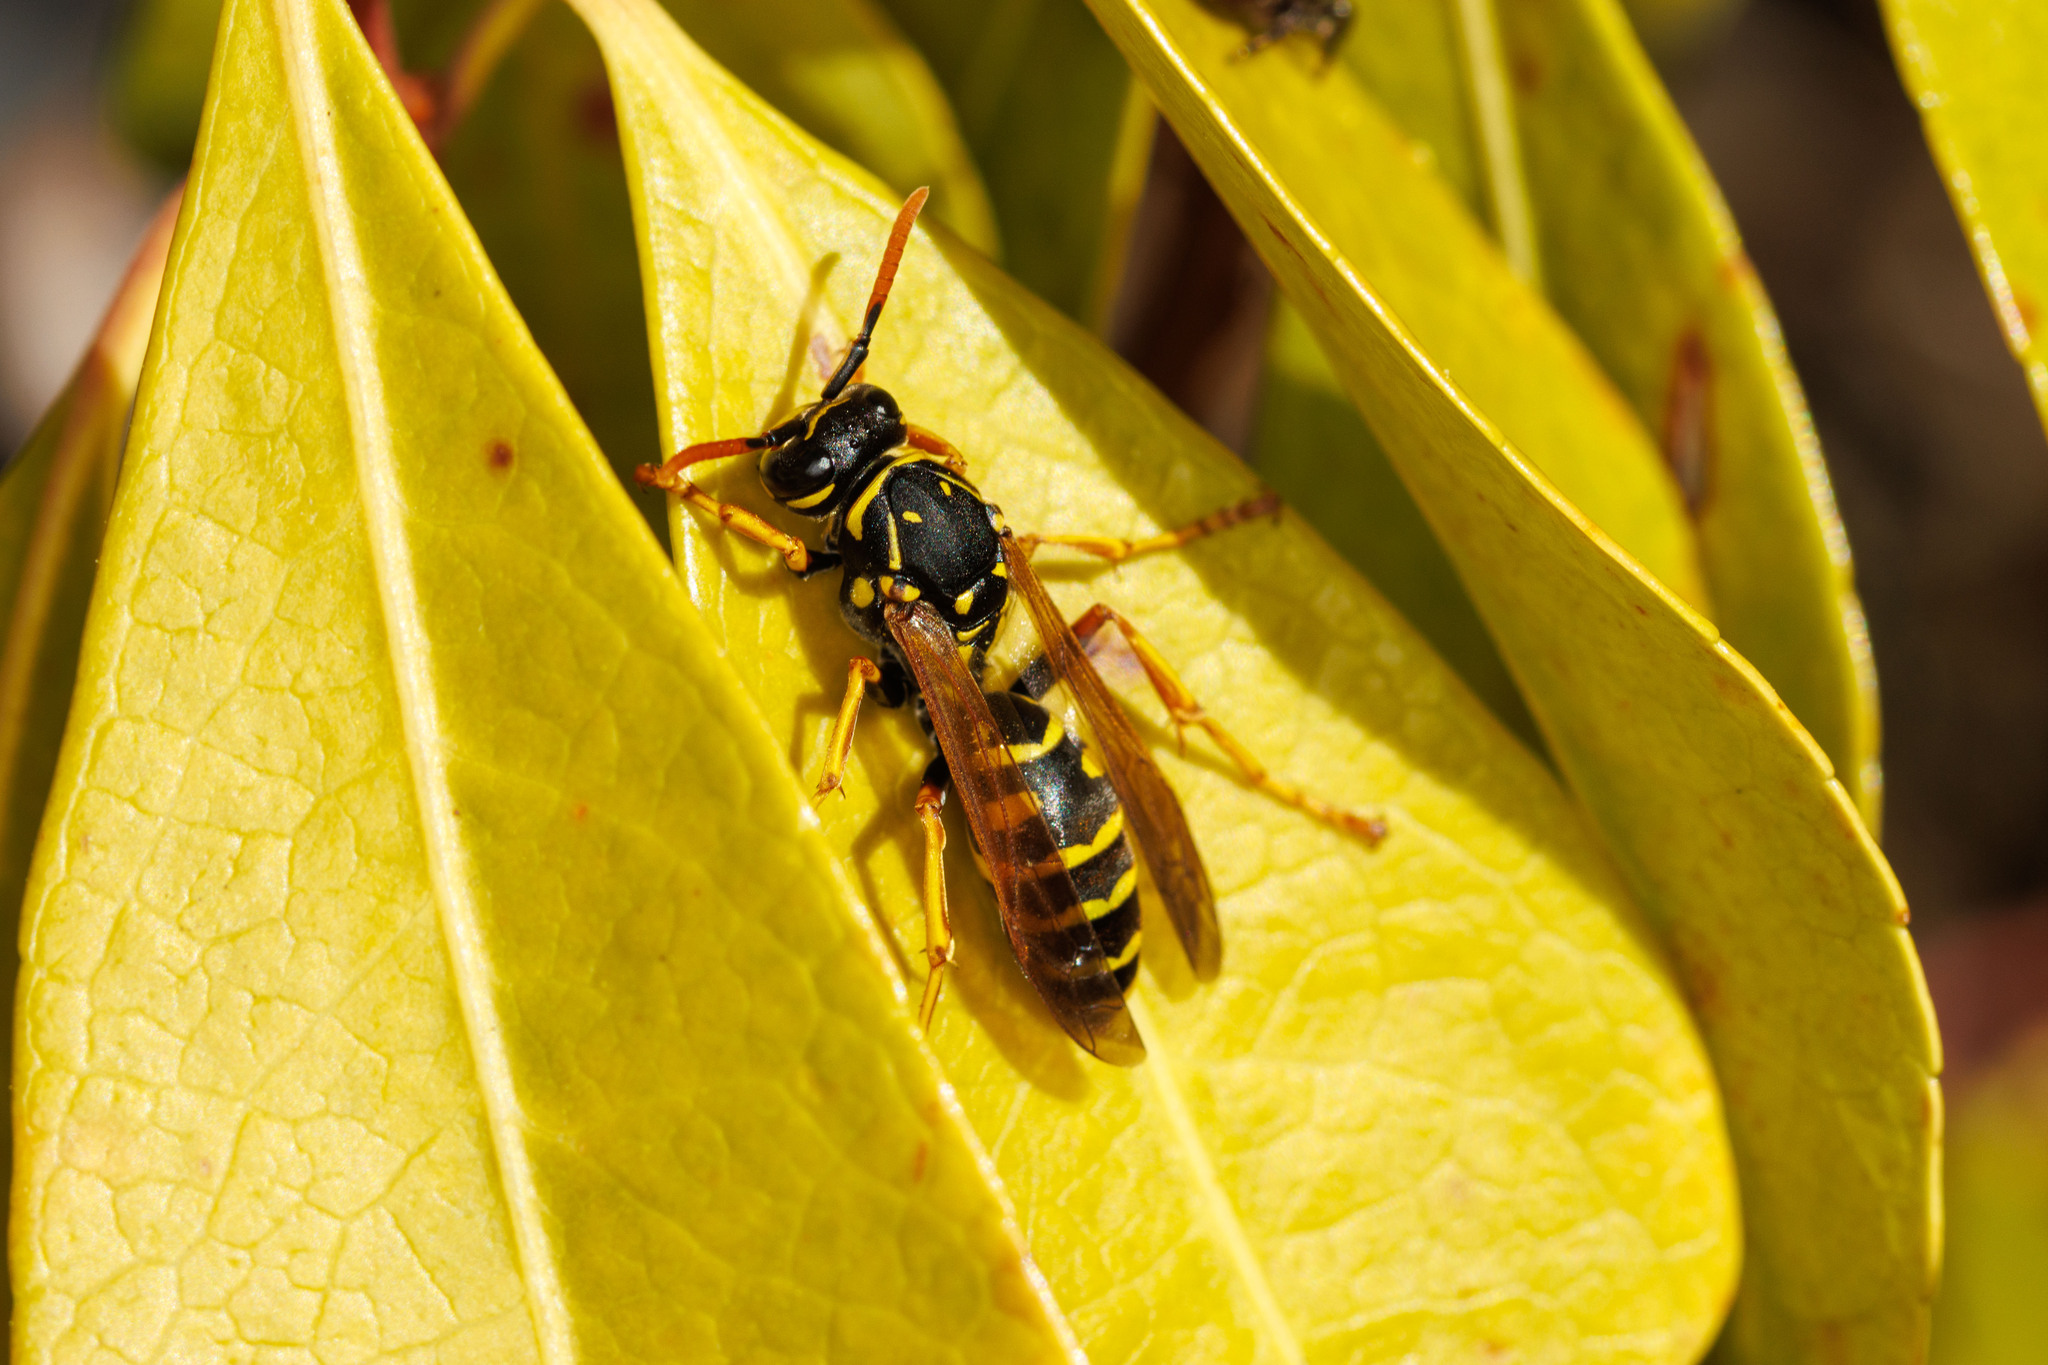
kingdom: Animalia
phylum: Arthropoda
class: Insecta
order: Hymenoptera
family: Eumenidae
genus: Polistes
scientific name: Polistes dominula
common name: Paper wasp
